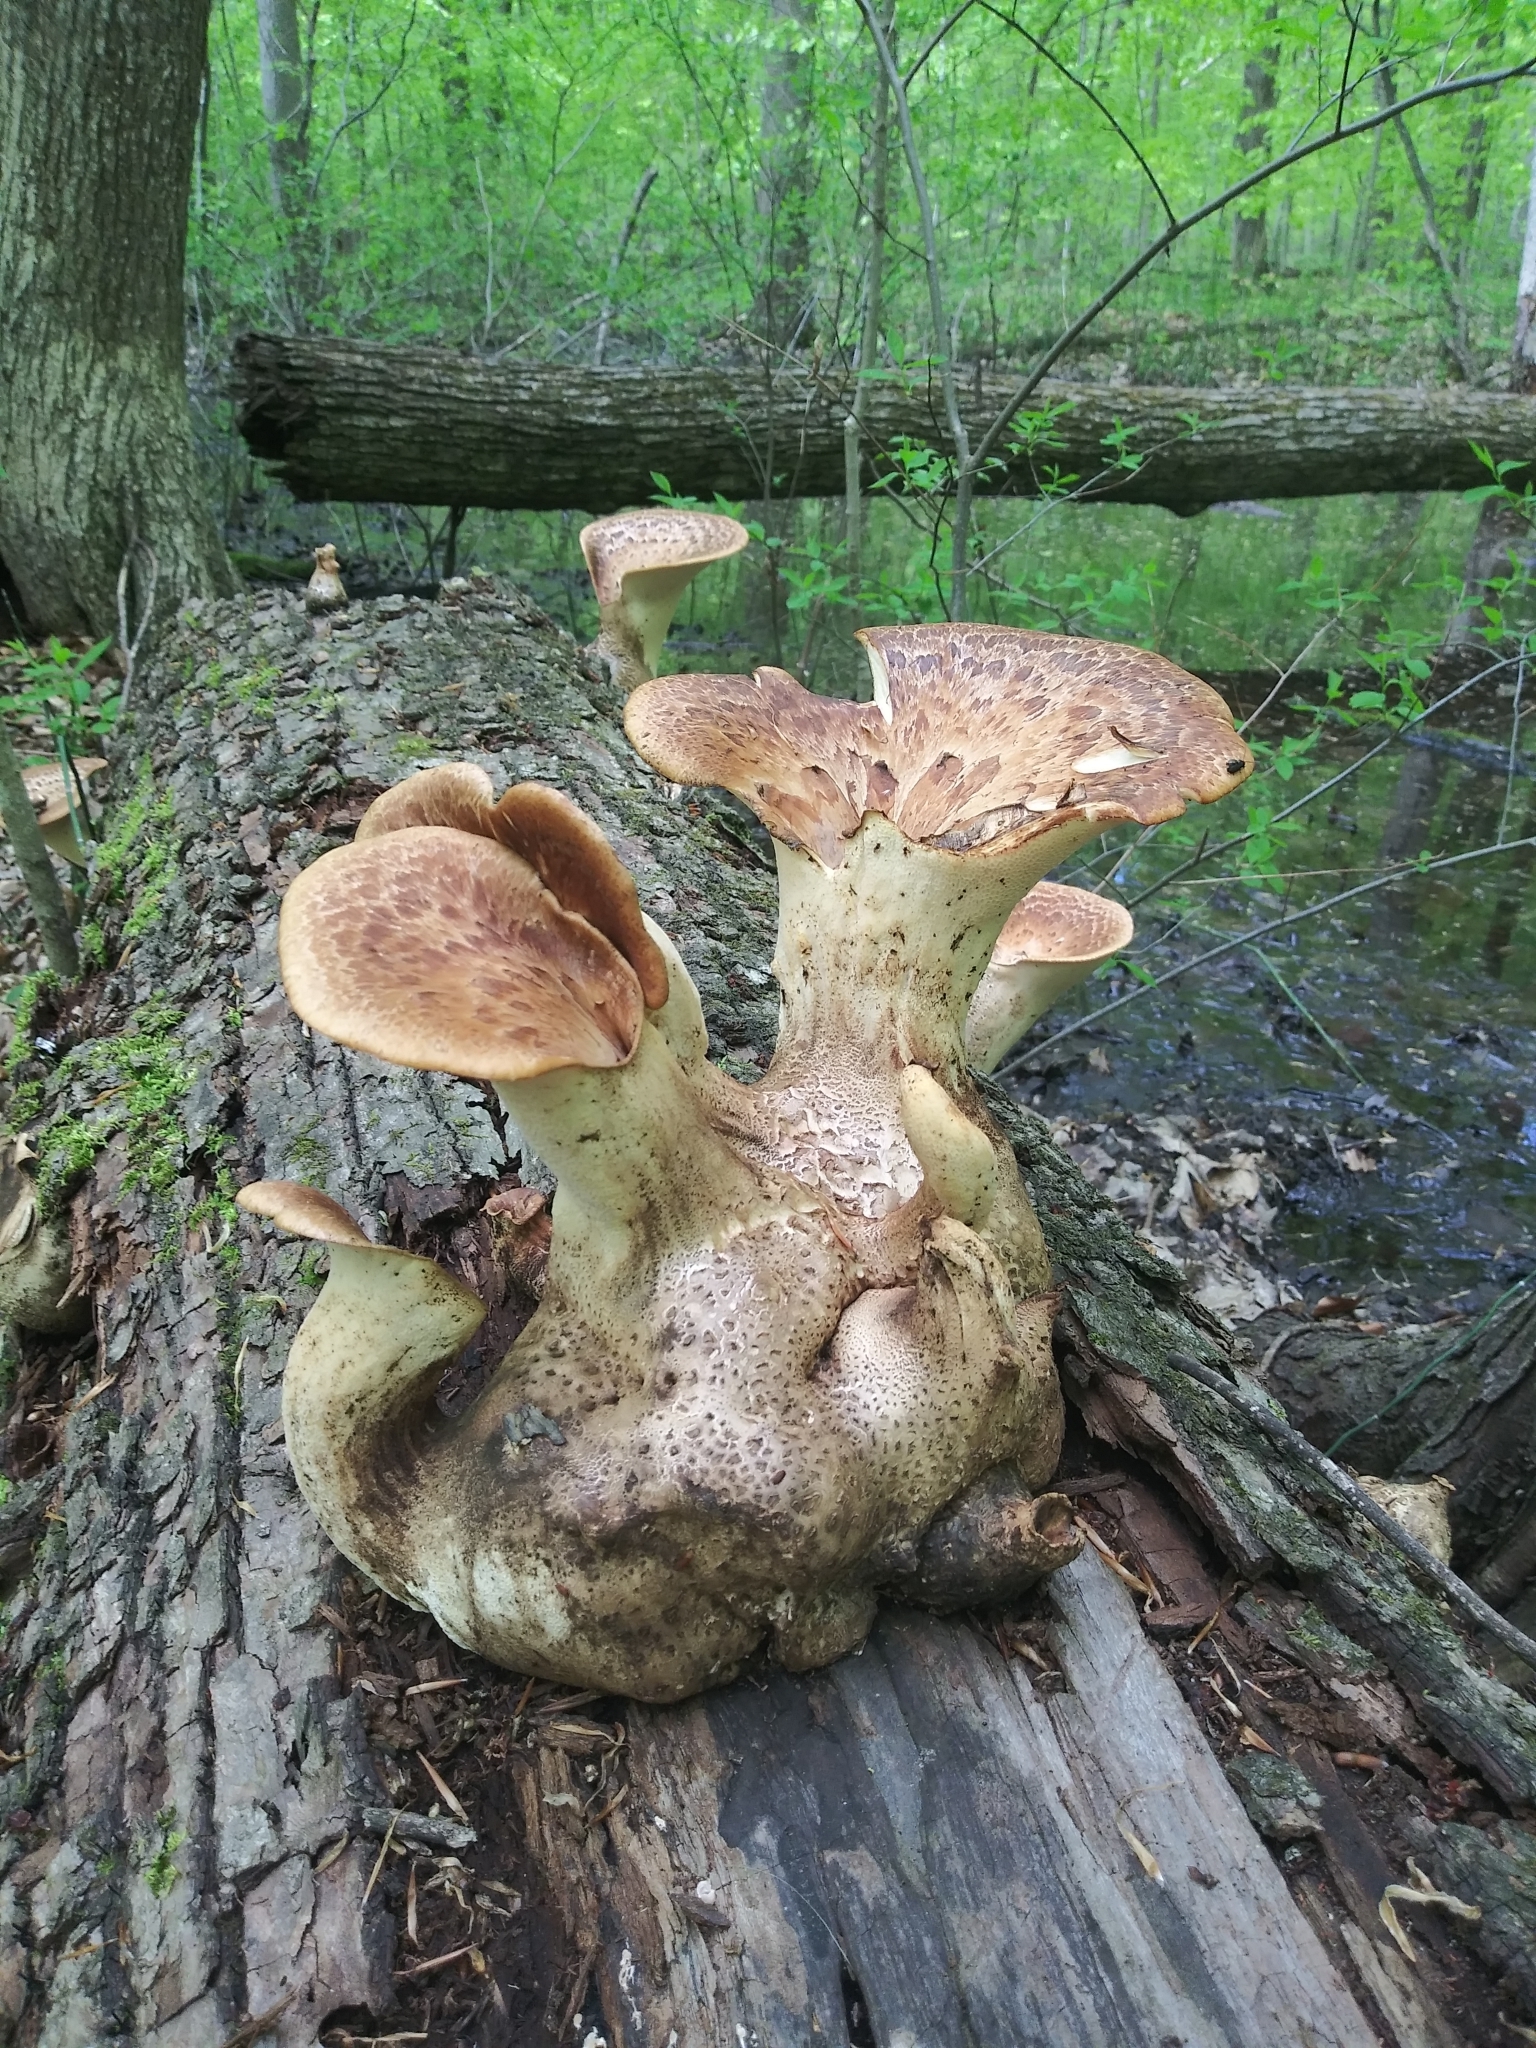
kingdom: Fungi
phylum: Basidiomycota
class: Agaricomycetes
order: Polyporales
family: Polyporaceae
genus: Cerioporus
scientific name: Cerioporus squamosus
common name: Dryad's saddle
